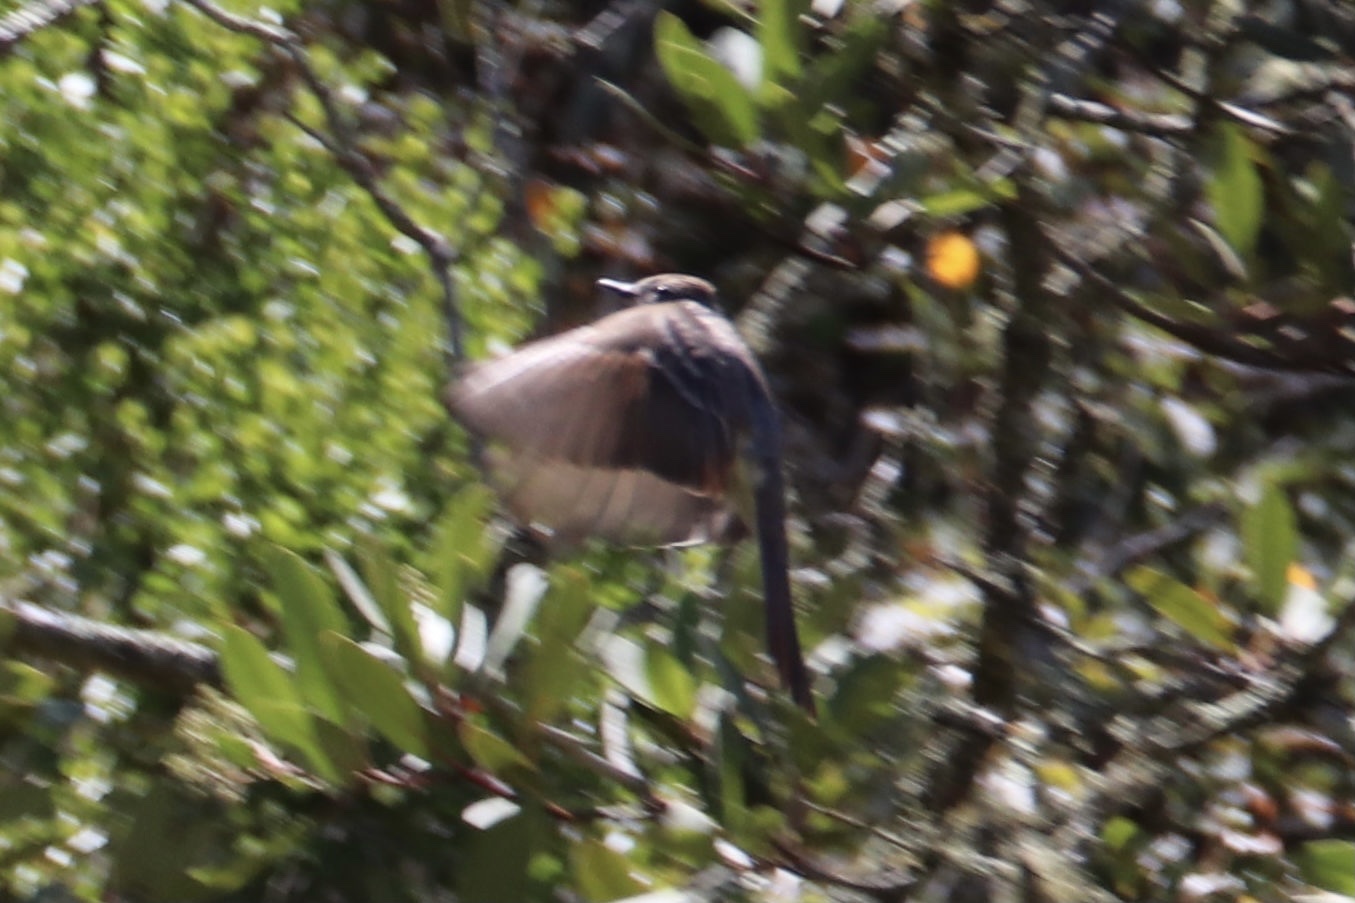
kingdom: Animalia
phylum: Chordata
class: Aves
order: Passeriformes
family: Tyrannidae
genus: Myiarchus
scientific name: Myiarchus cinerascens
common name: Ash-throated flycatcher
